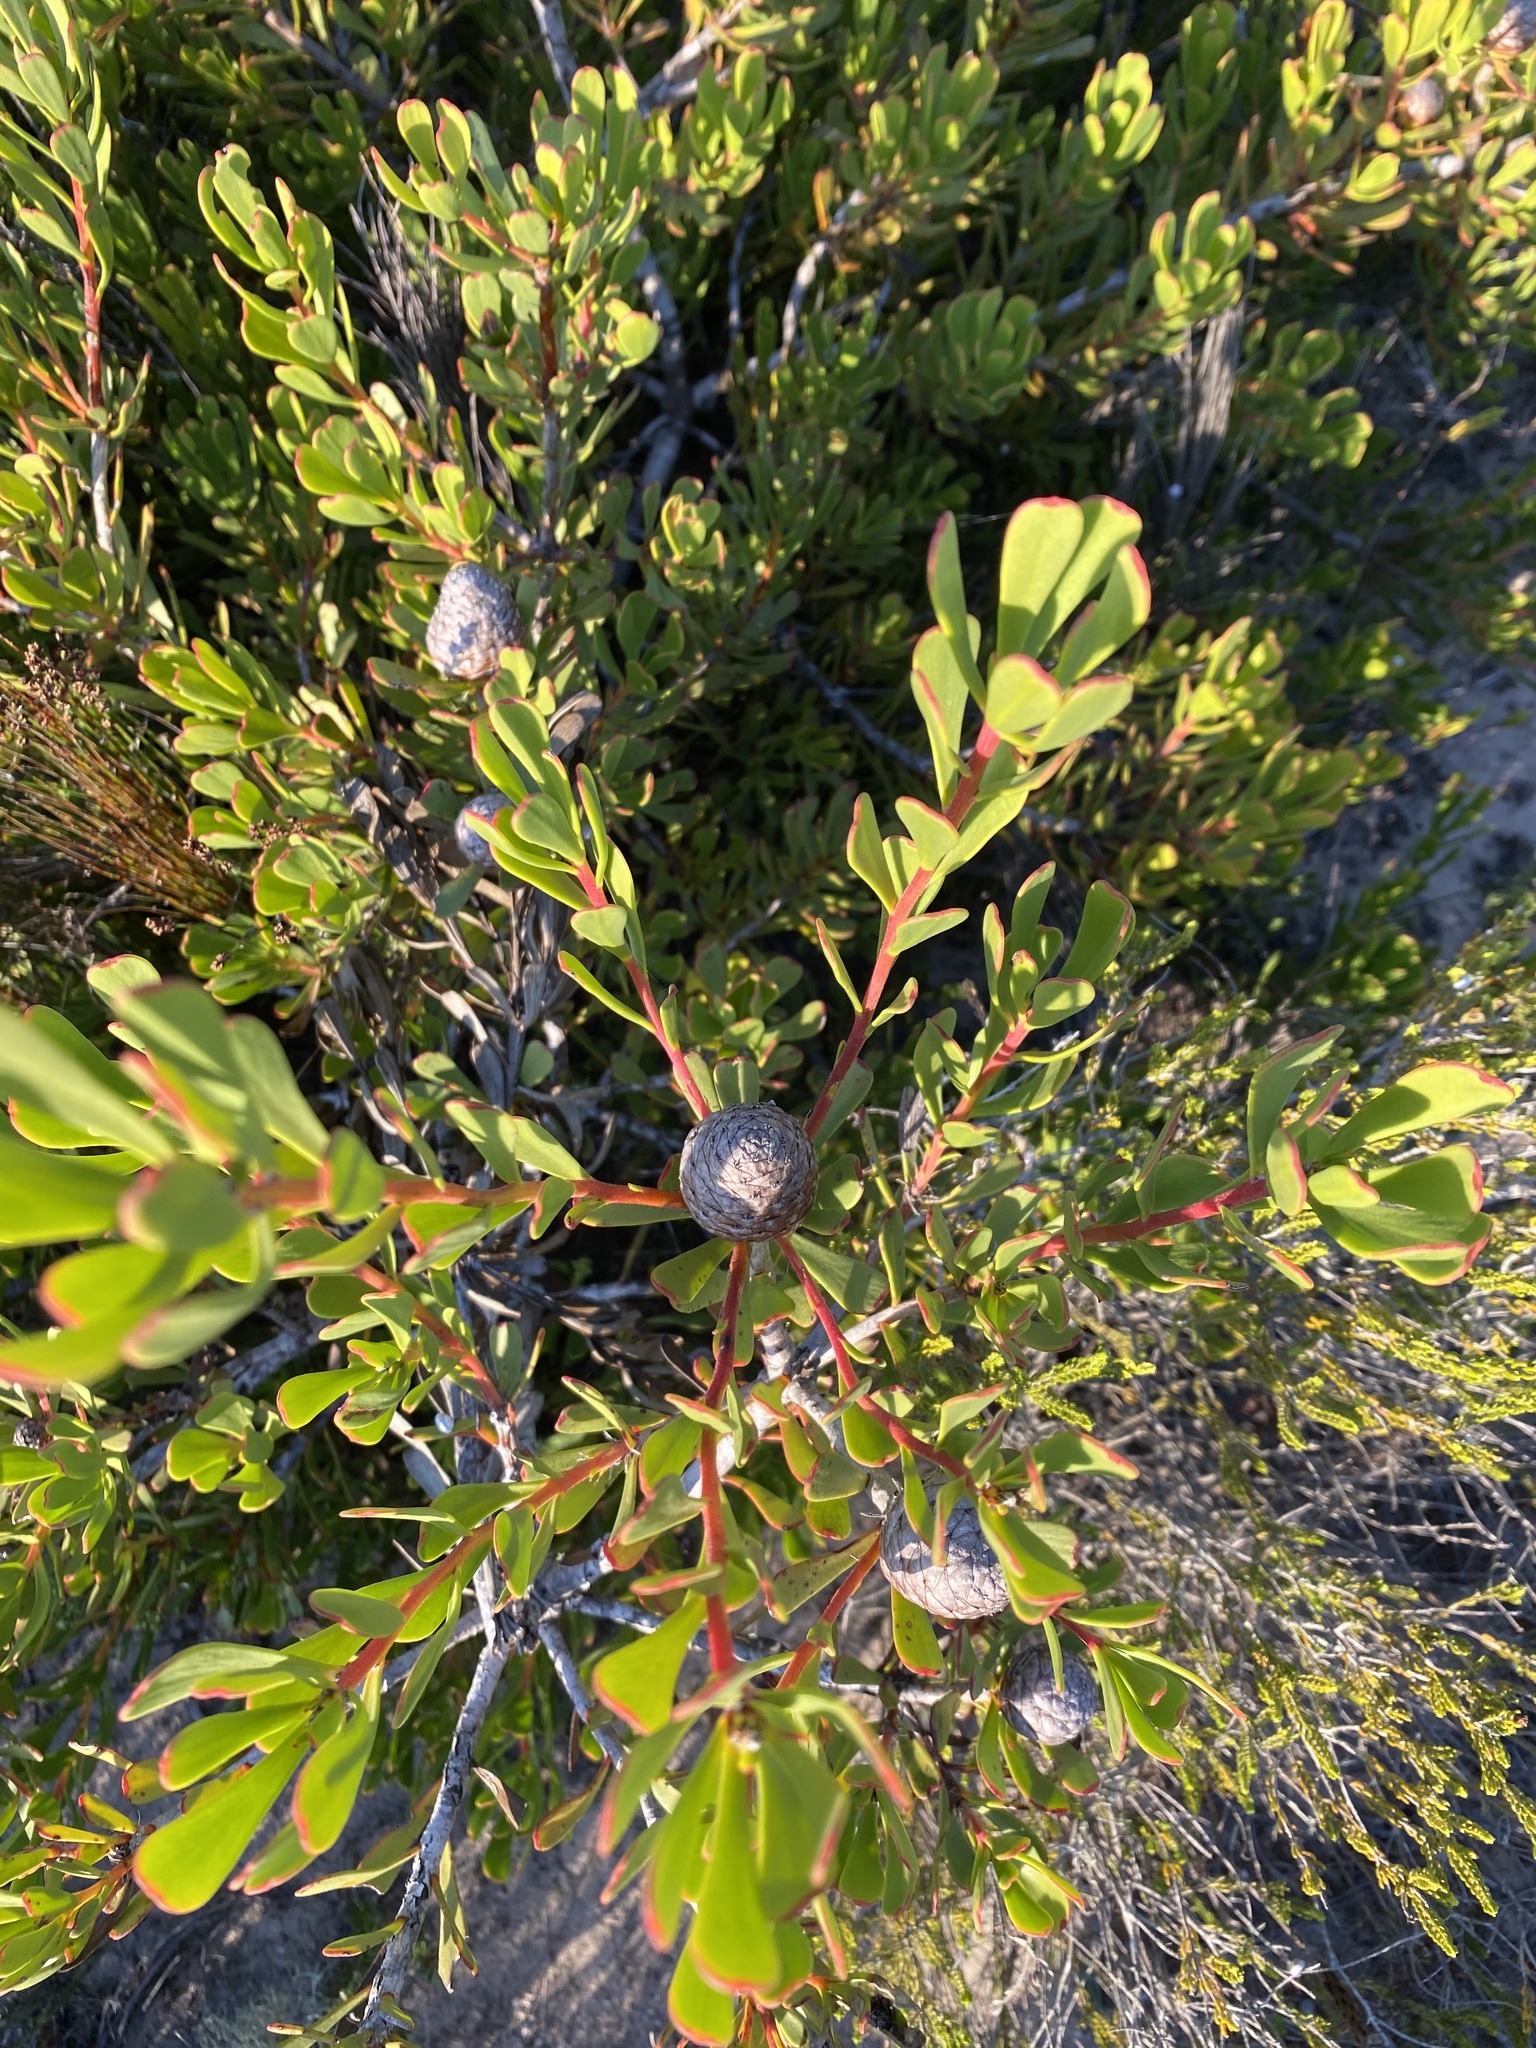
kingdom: Plantae
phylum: Tracheophyta
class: Magnoliopsida
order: Proteales
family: Proteaceae
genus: Leucadendron
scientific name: Leucadendron muirii
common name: Silver-ball conebush
